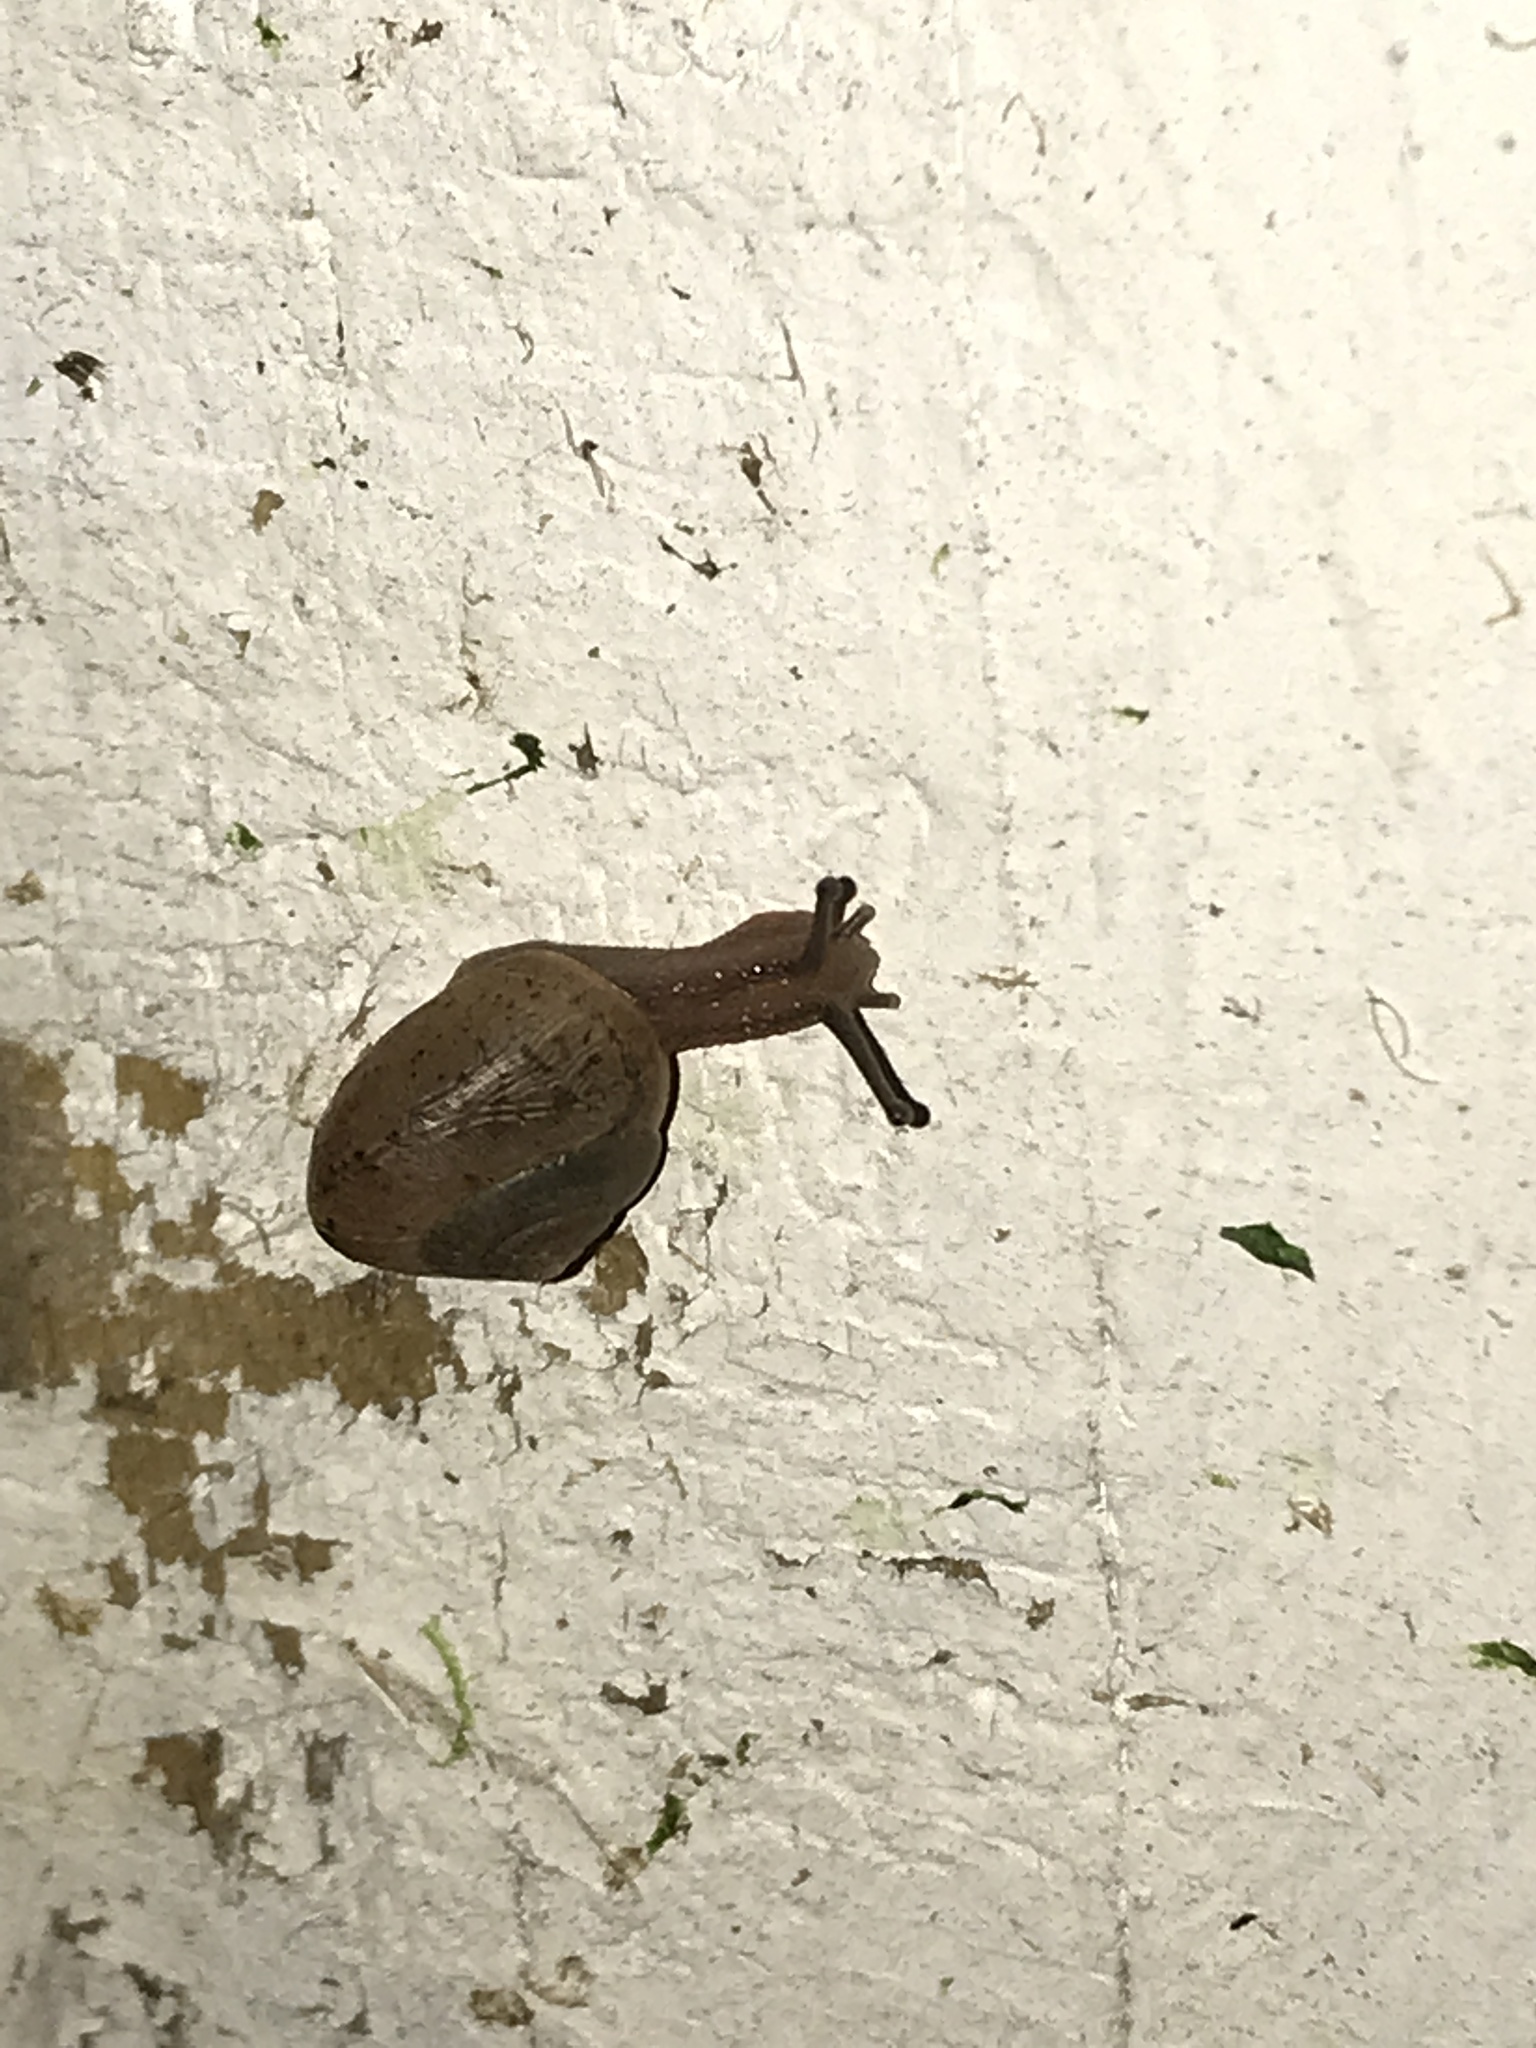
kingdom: Animalia
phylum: Mollusca
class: Gastropoda
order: Stylommatophora
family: Camaenidae
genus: Bradybaena
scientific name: Bradybaena similaris
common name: Asian trampsnail
